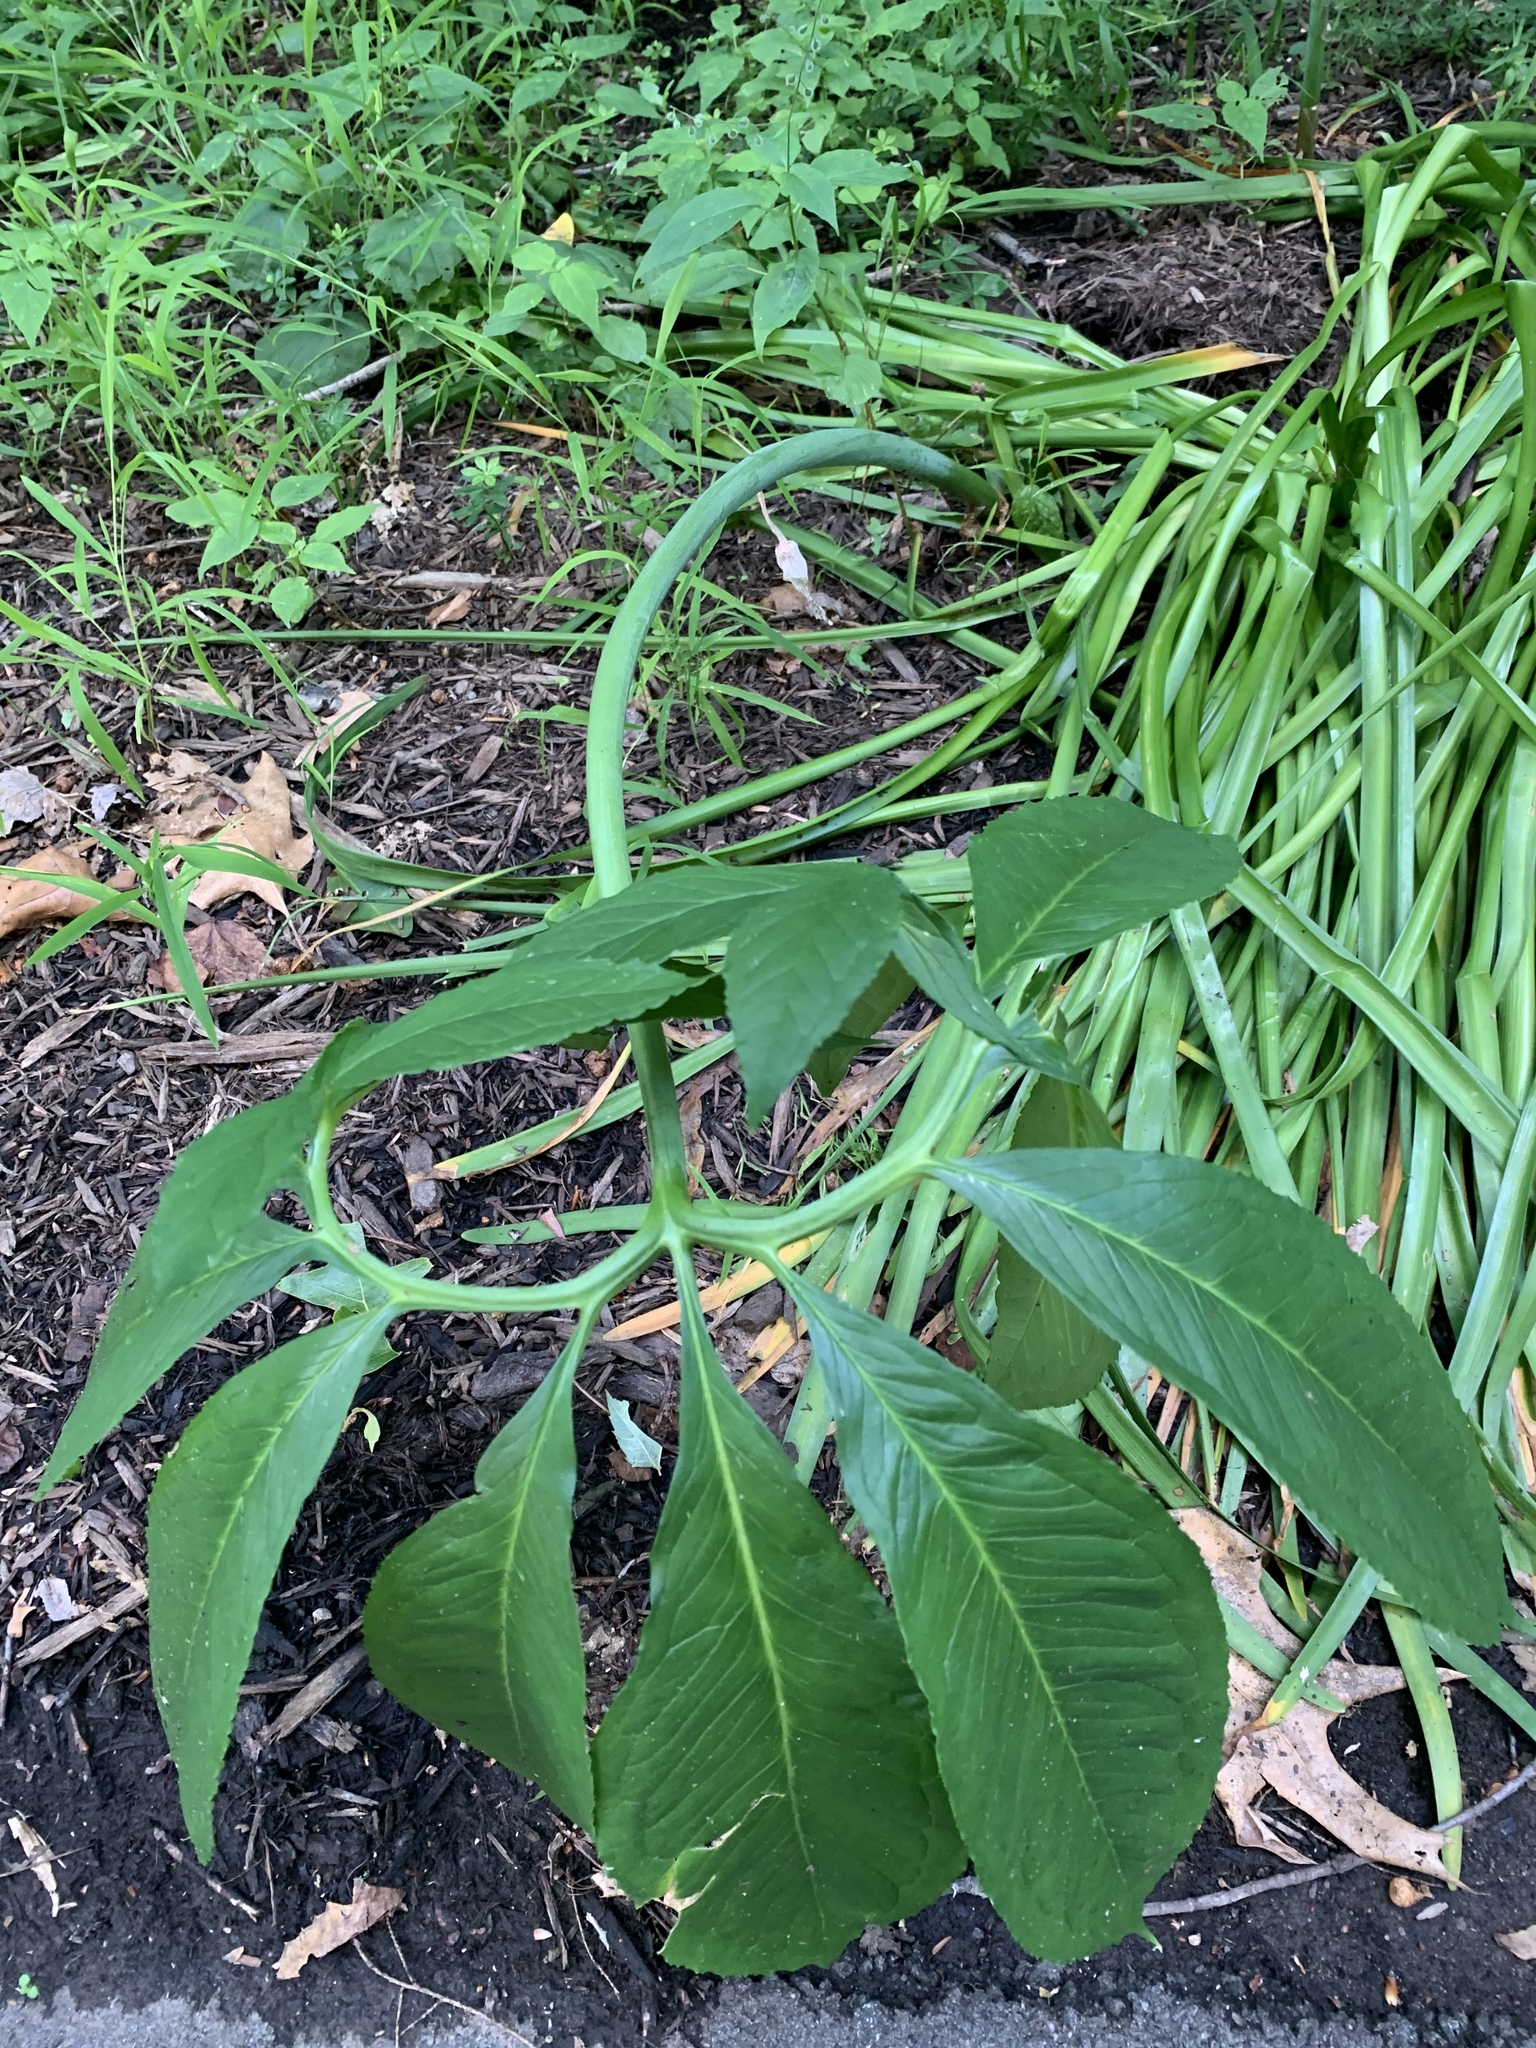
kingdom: Plantae
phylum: Tracheophyta
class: Liliopsida
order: Alismatales
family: Araceae
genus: Arisaema
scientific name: Arisaema dracontium
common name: Dragon-arum
